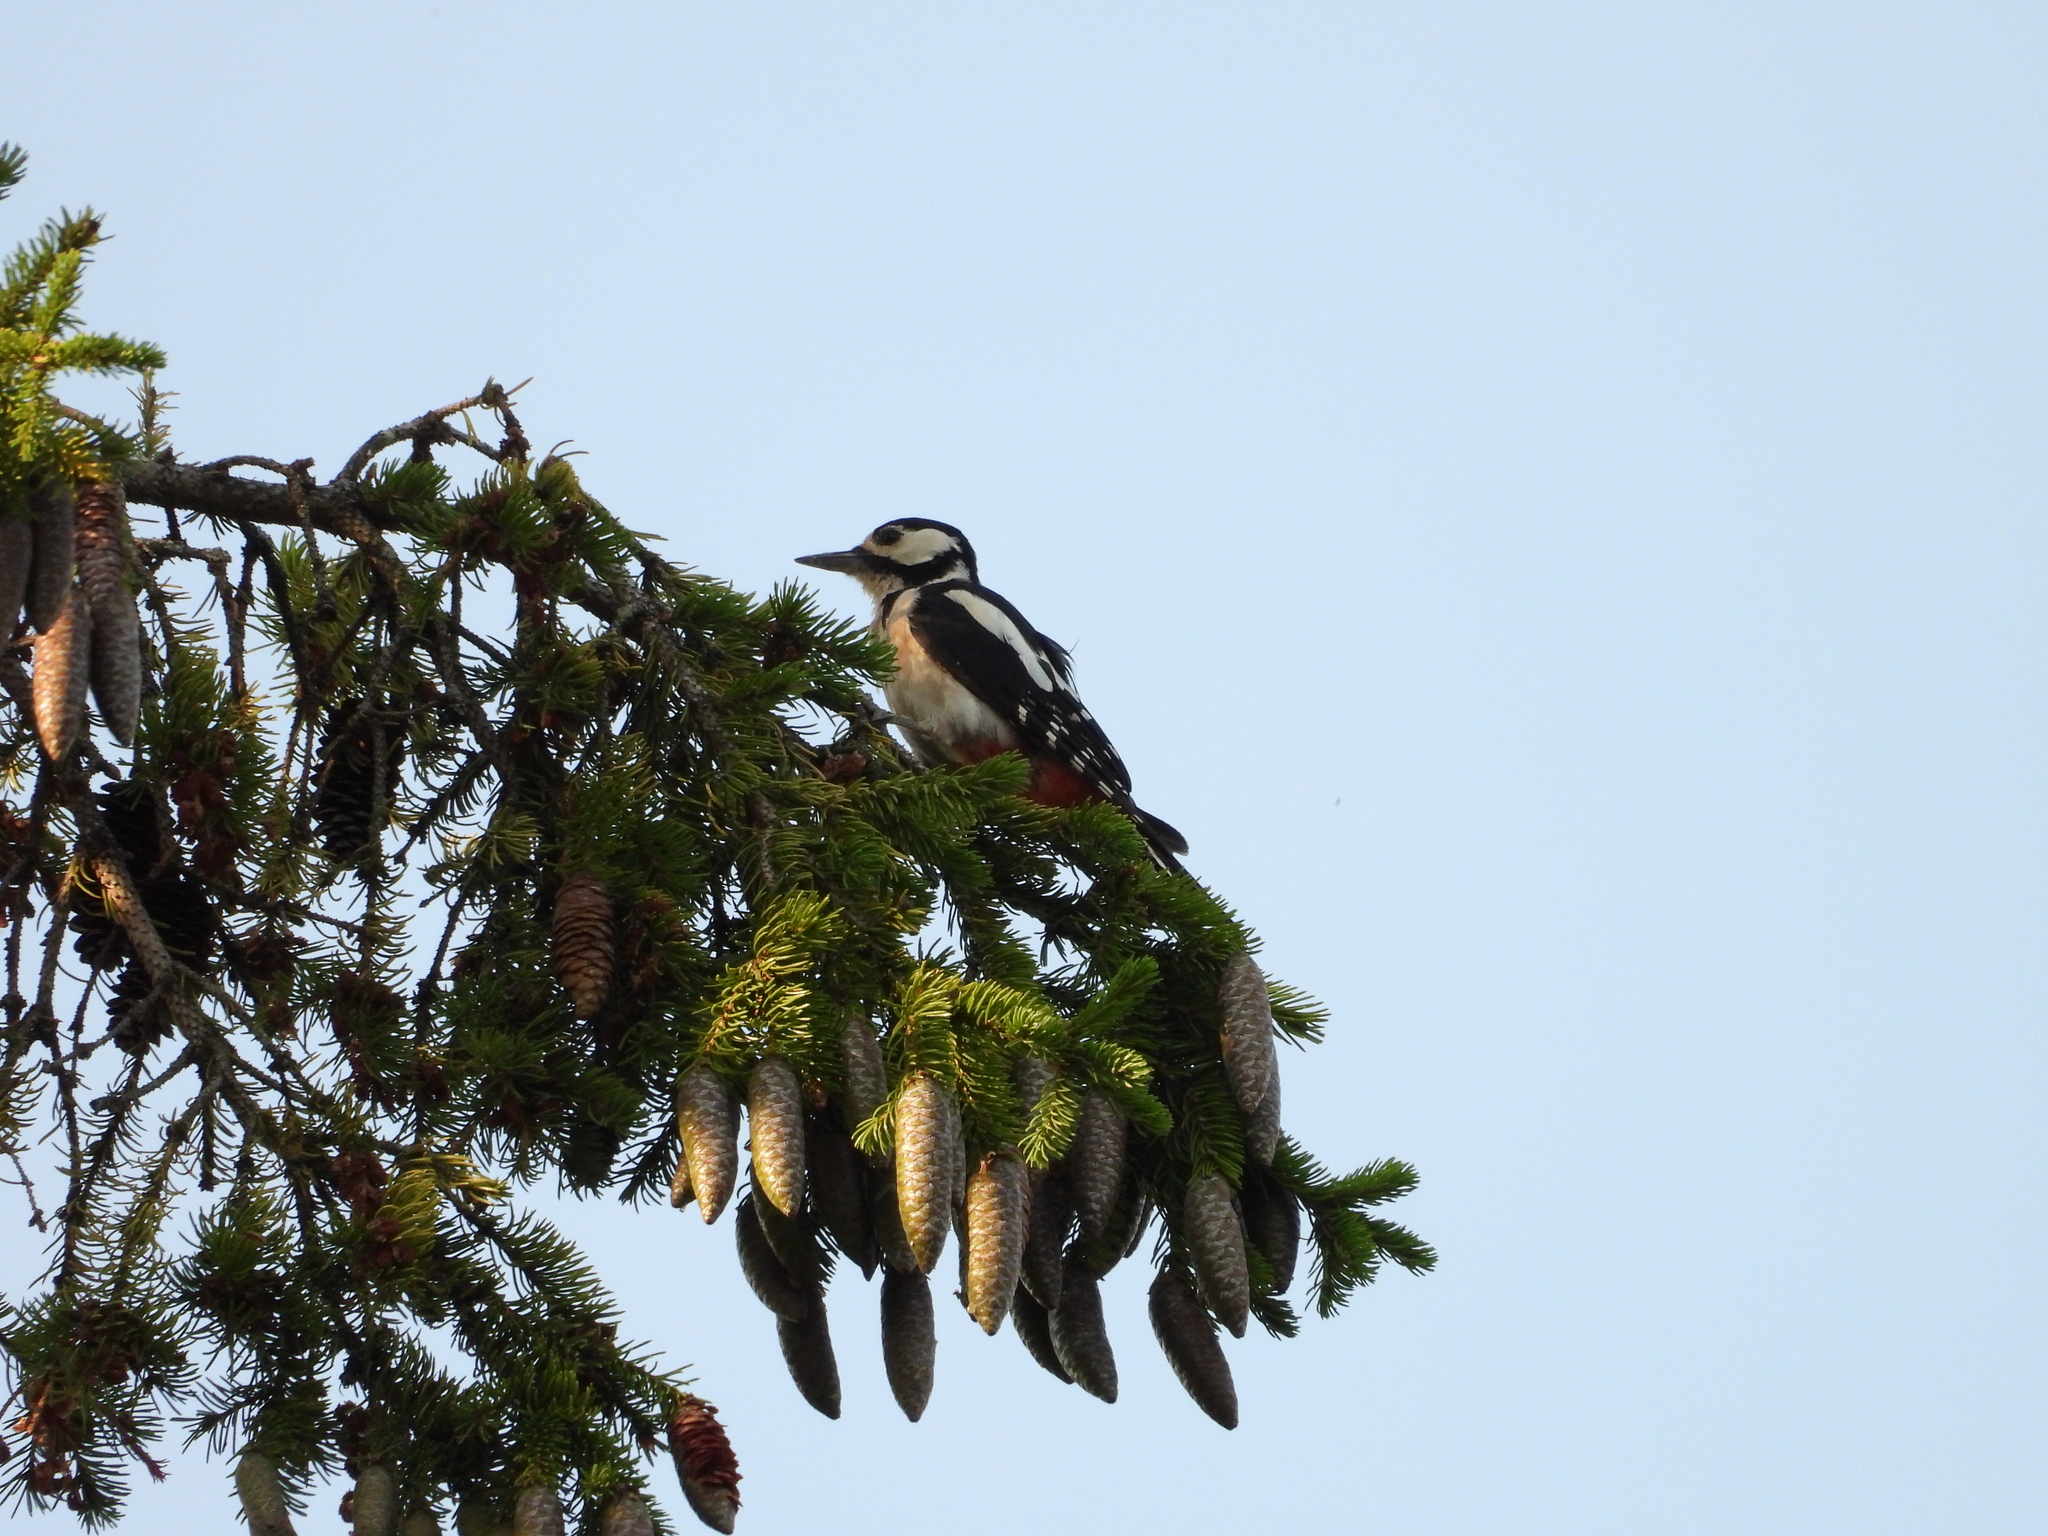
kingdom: Animalia
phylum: Chordata
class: Aves
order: Piciformes
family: Picidae
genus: Dendrocopos
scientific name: Dendrocopos major
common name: Great spotted woodpecker
